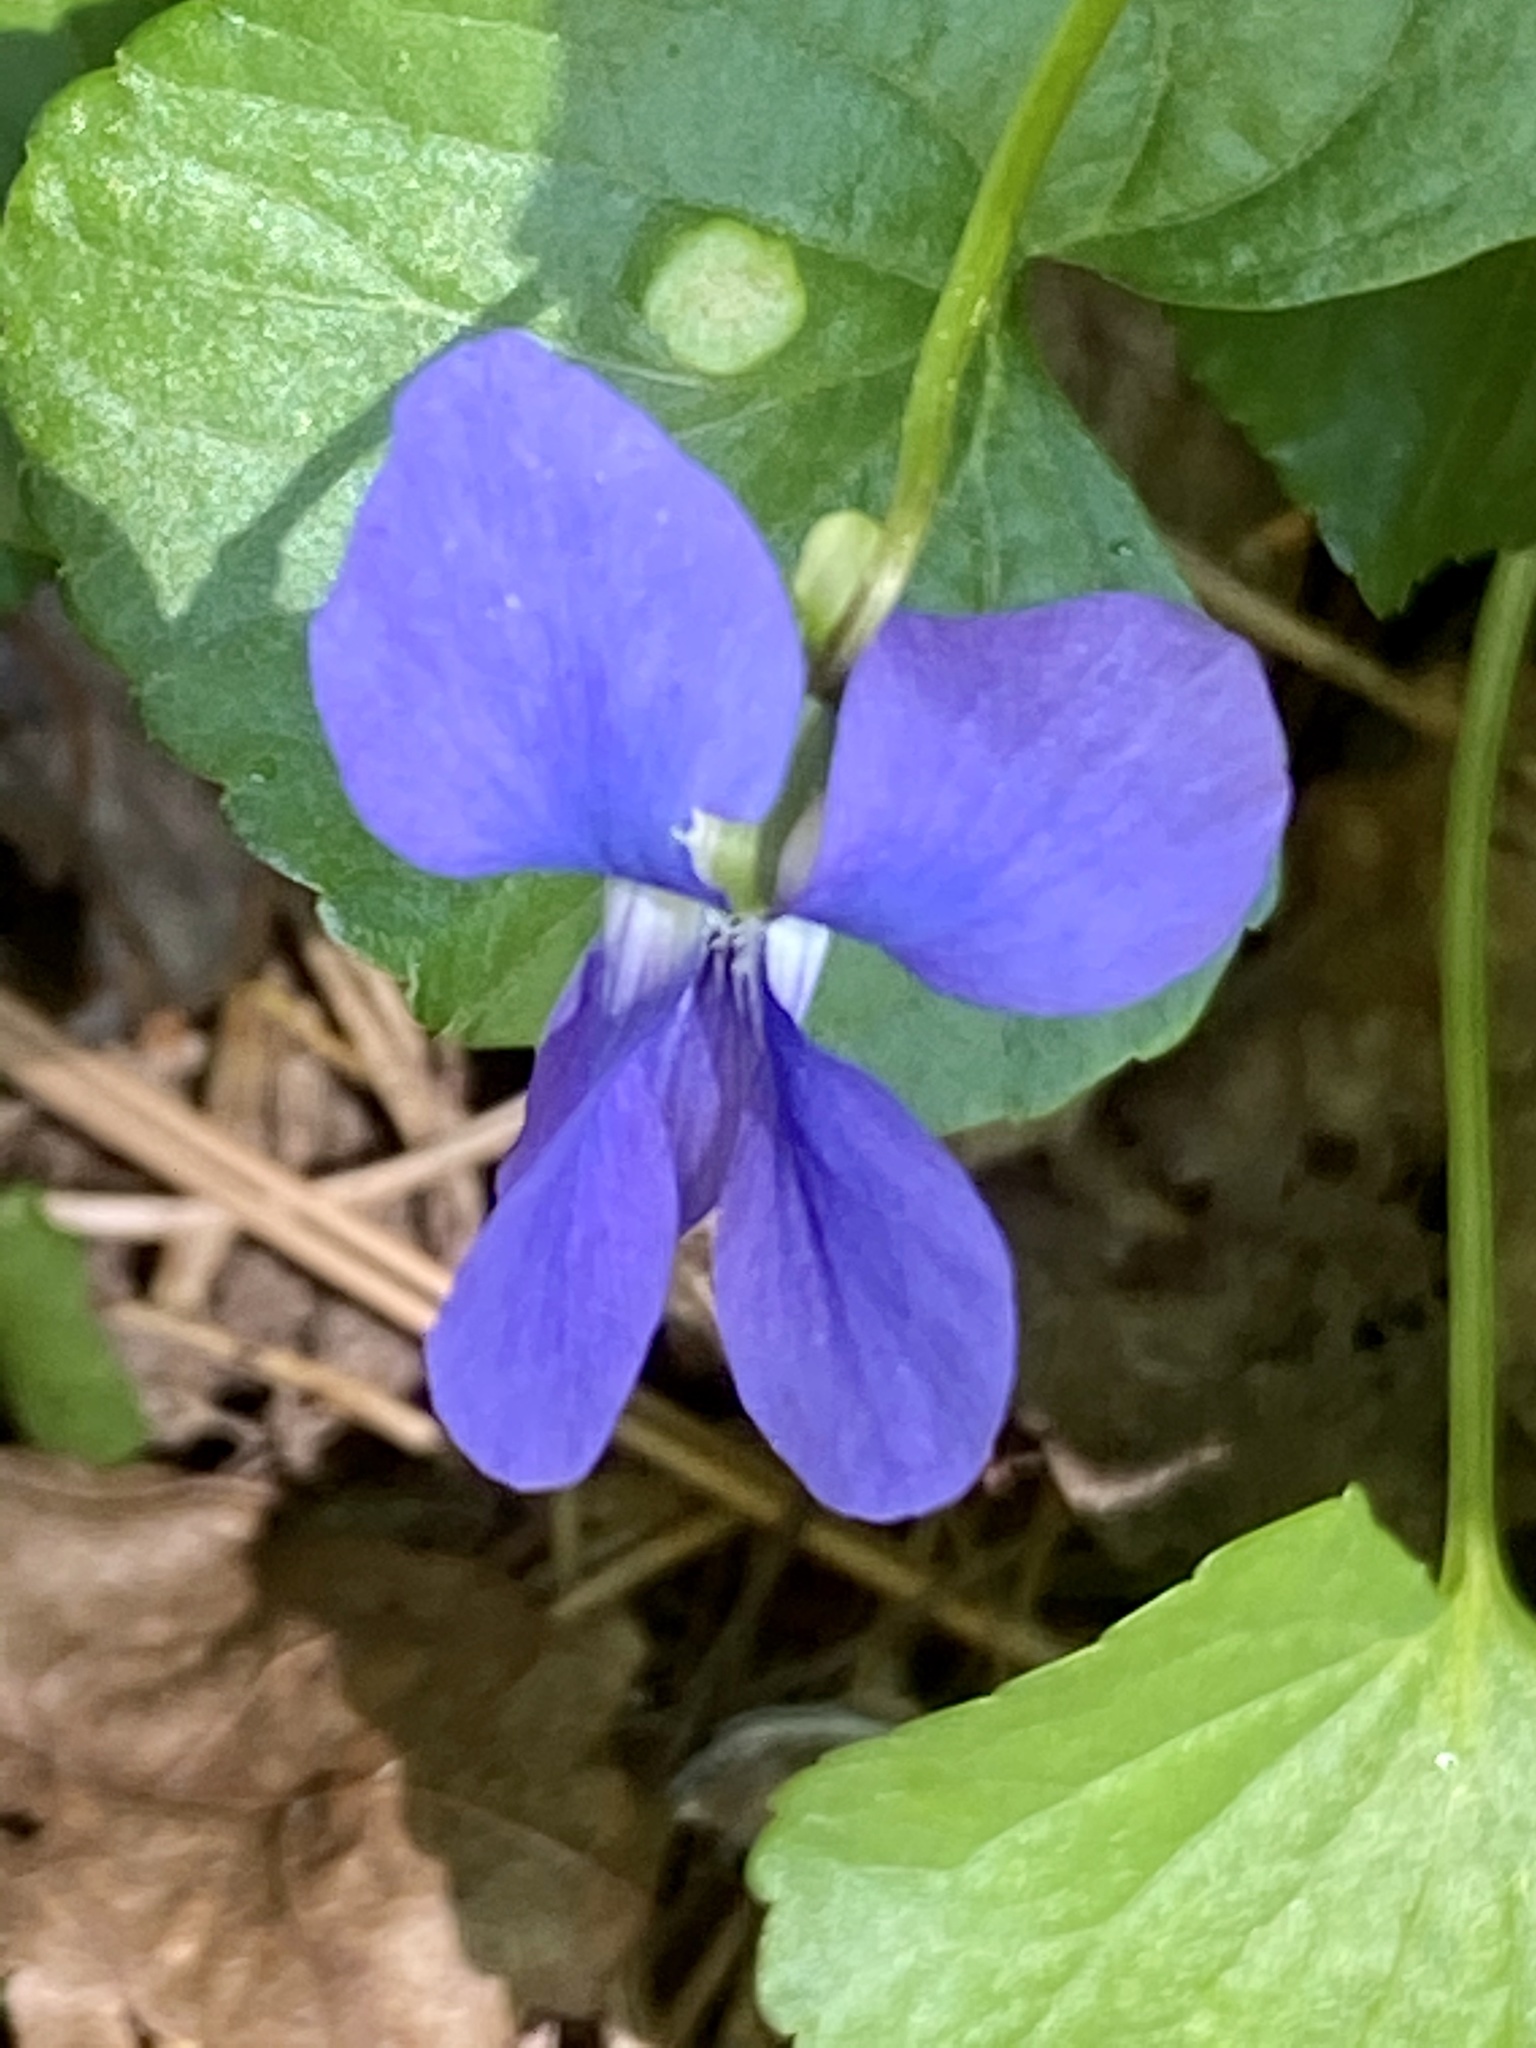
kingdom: Plantae
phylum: Tracheophyta
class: Magnoliopsida
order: Malpighiales
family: Violaceae
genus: Viola
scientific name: Viola sororia
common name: Dooryard violet
